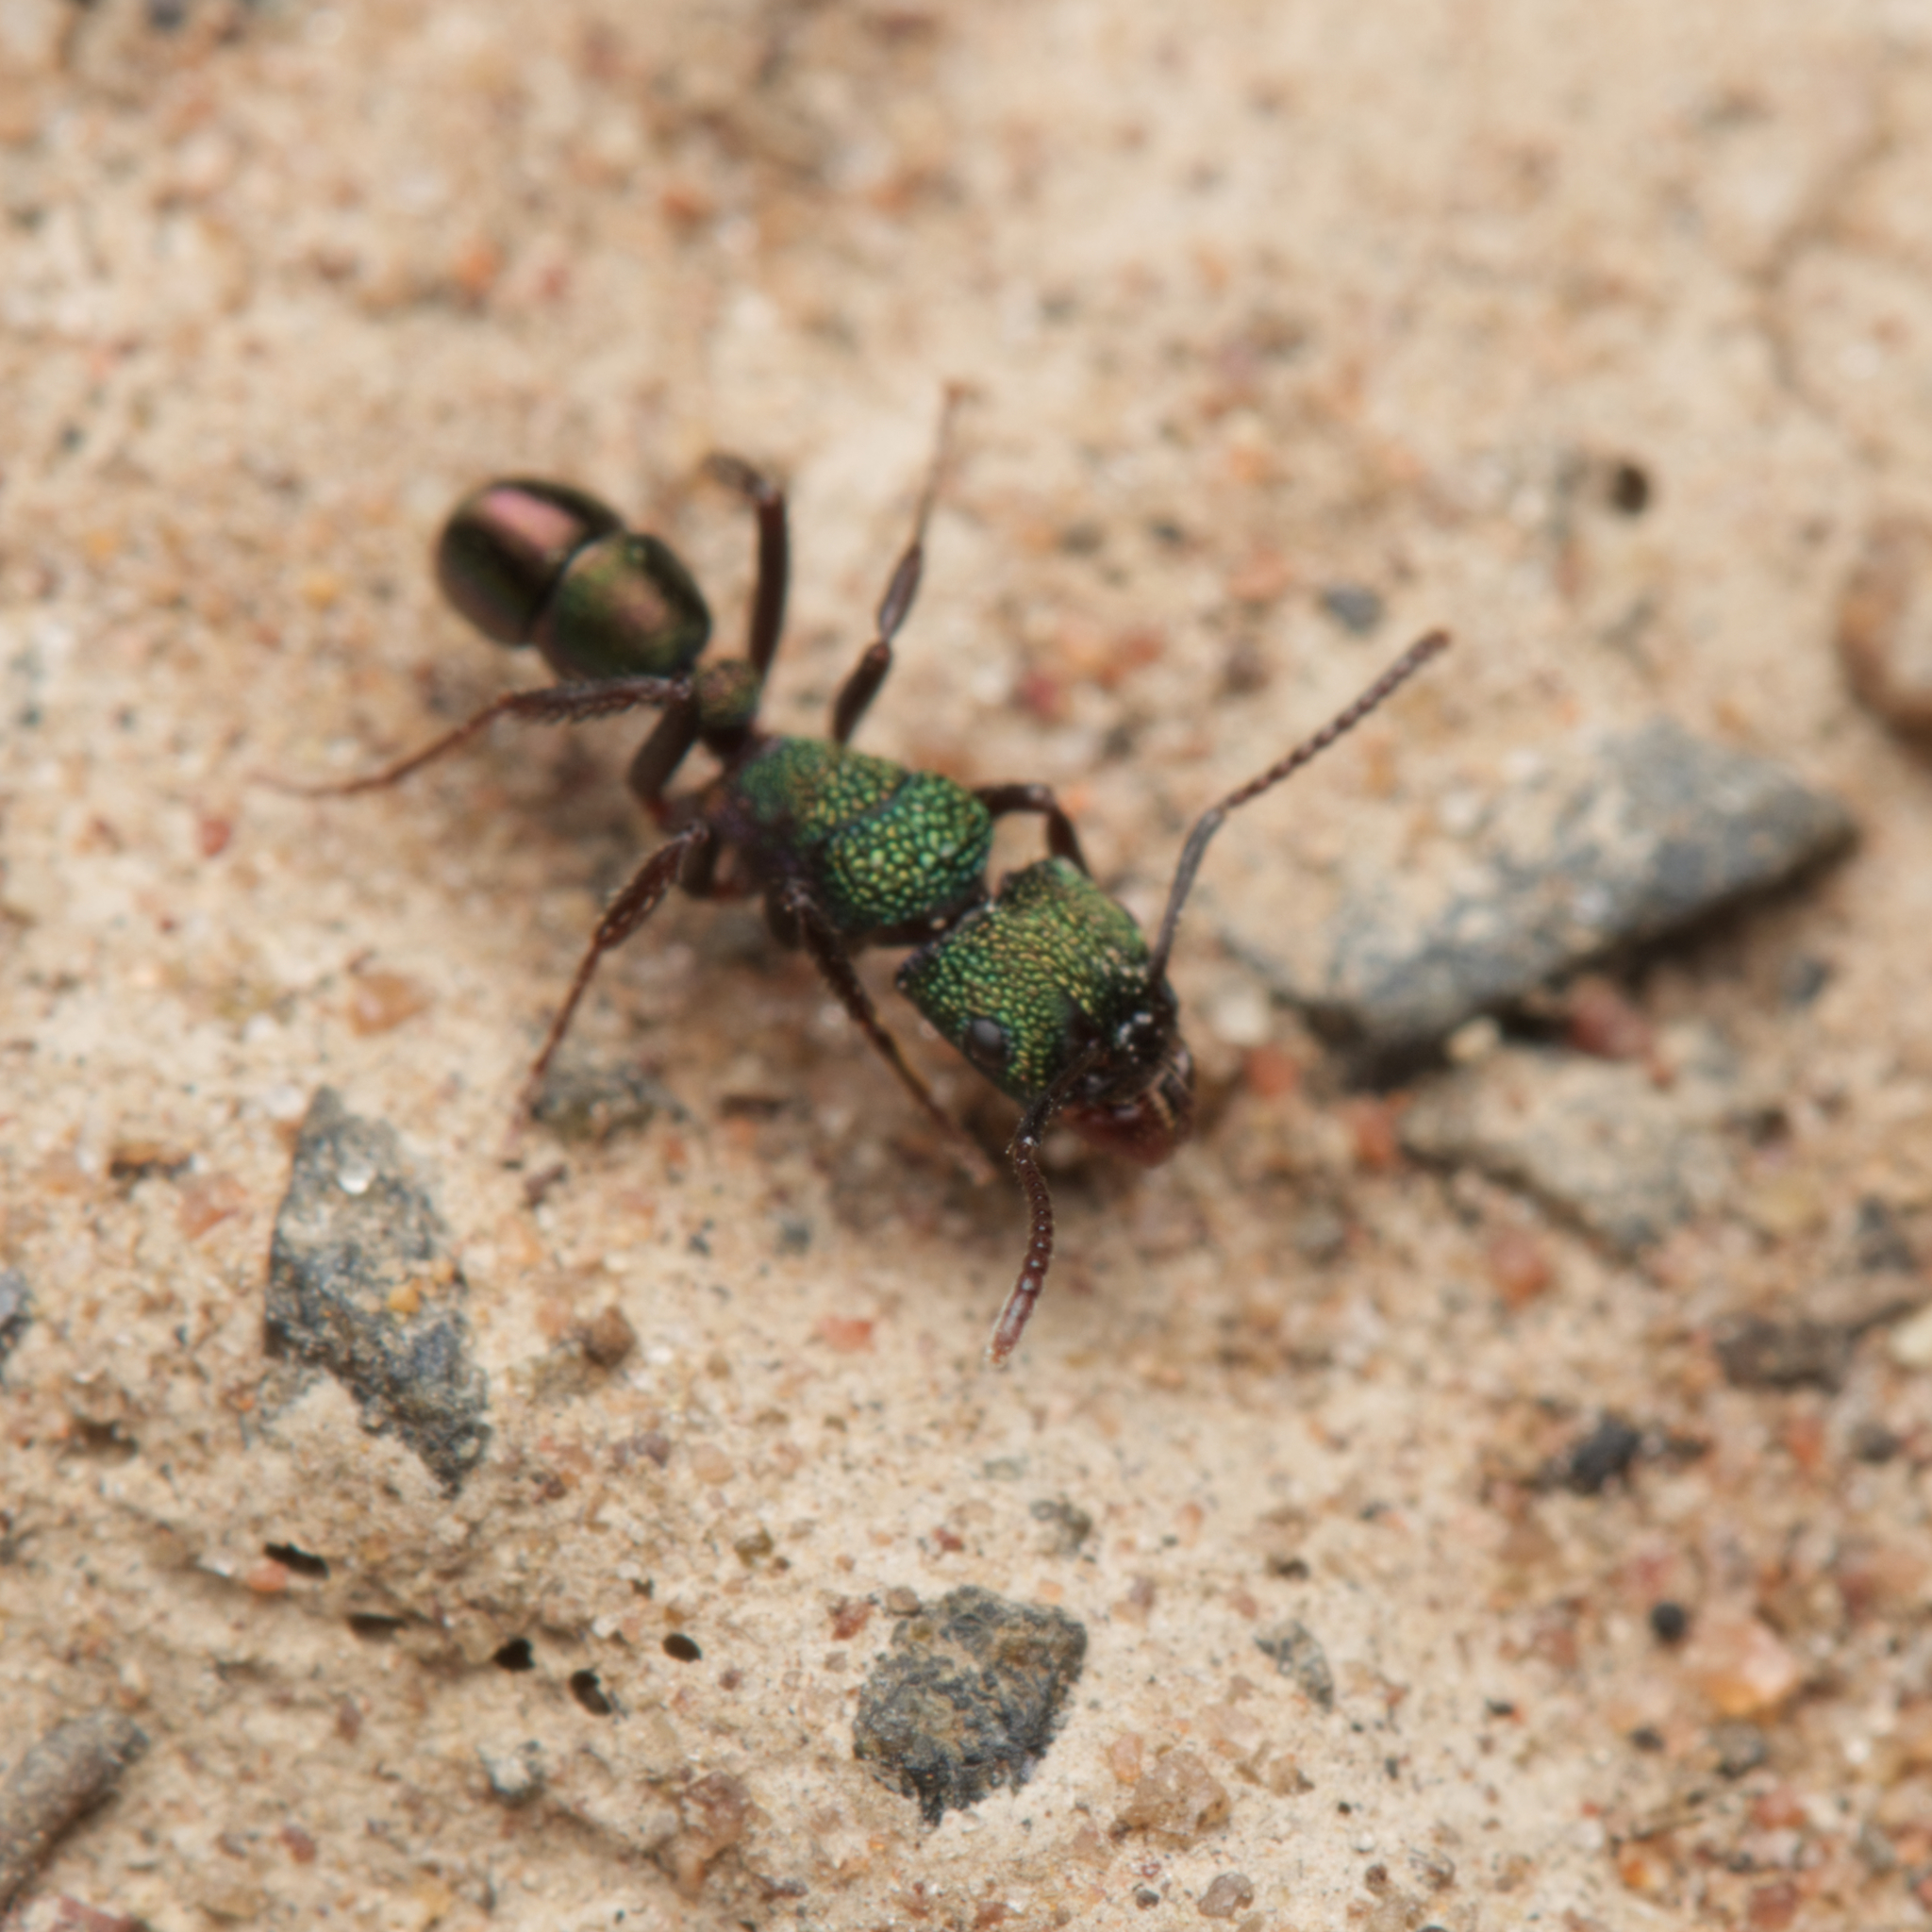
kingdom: Animalia
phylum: Arthropoda
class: Insecta
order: Hymenoptera
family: Formicidae
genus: Rhytidoponera
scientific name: Rhytidoponera metallica
